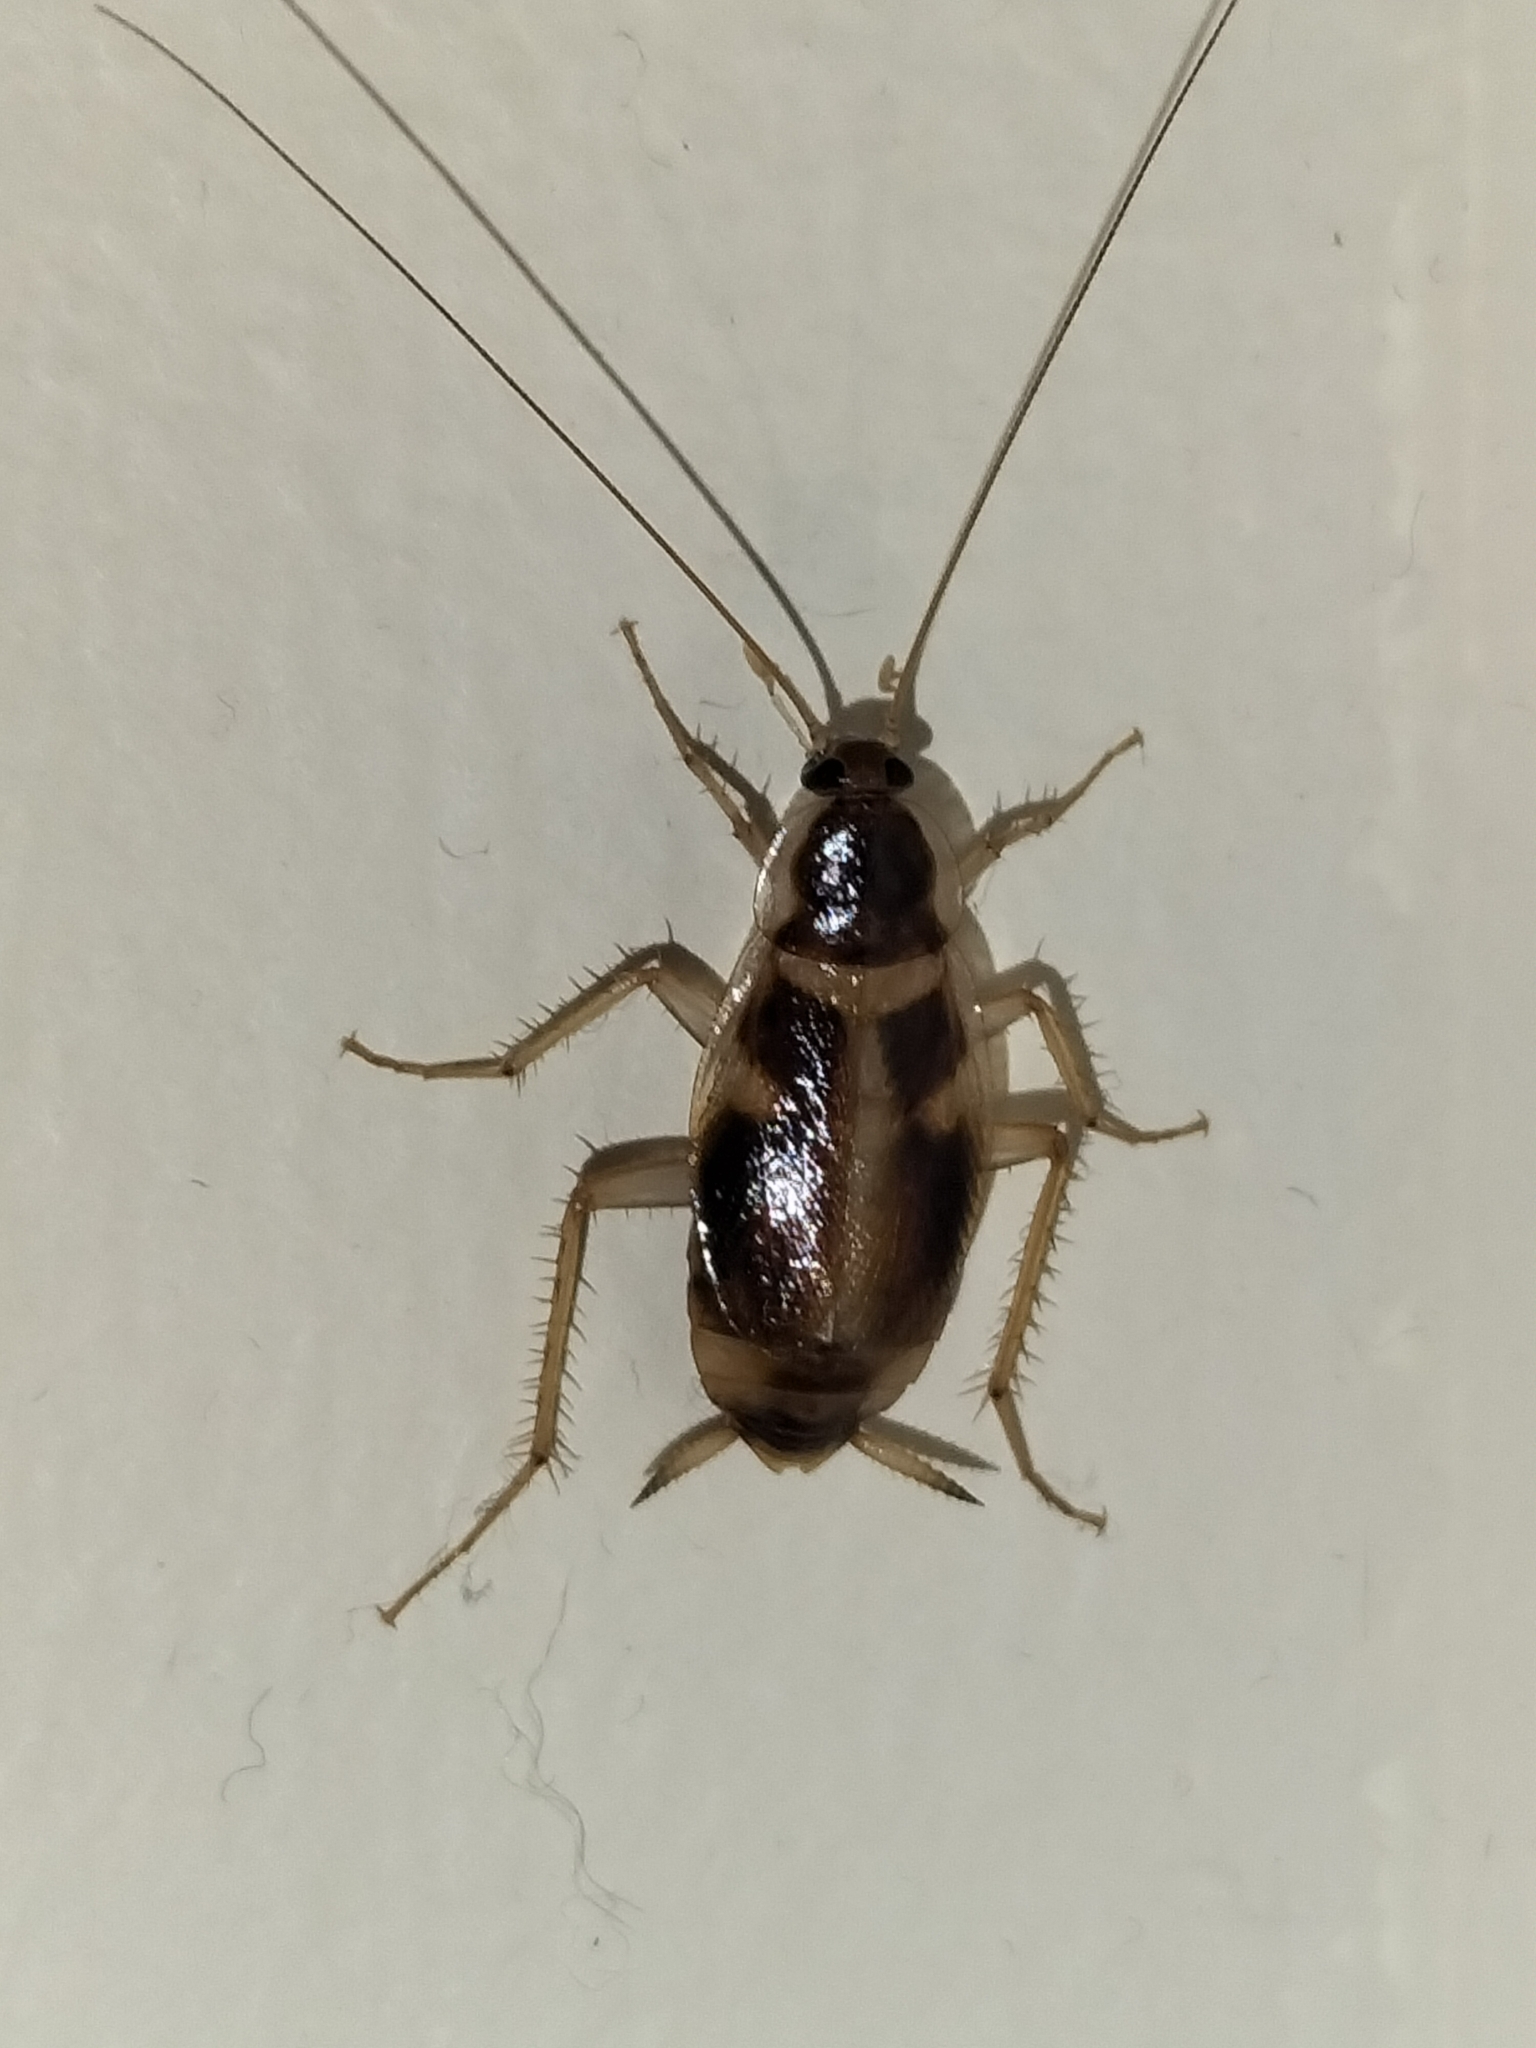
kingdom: Animalia
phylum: Arthropoda
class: Insecta
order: Blattodea
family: Ectobiidae
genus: Supella
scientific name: Supella longipalpa
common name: Brown-banded cockroach
